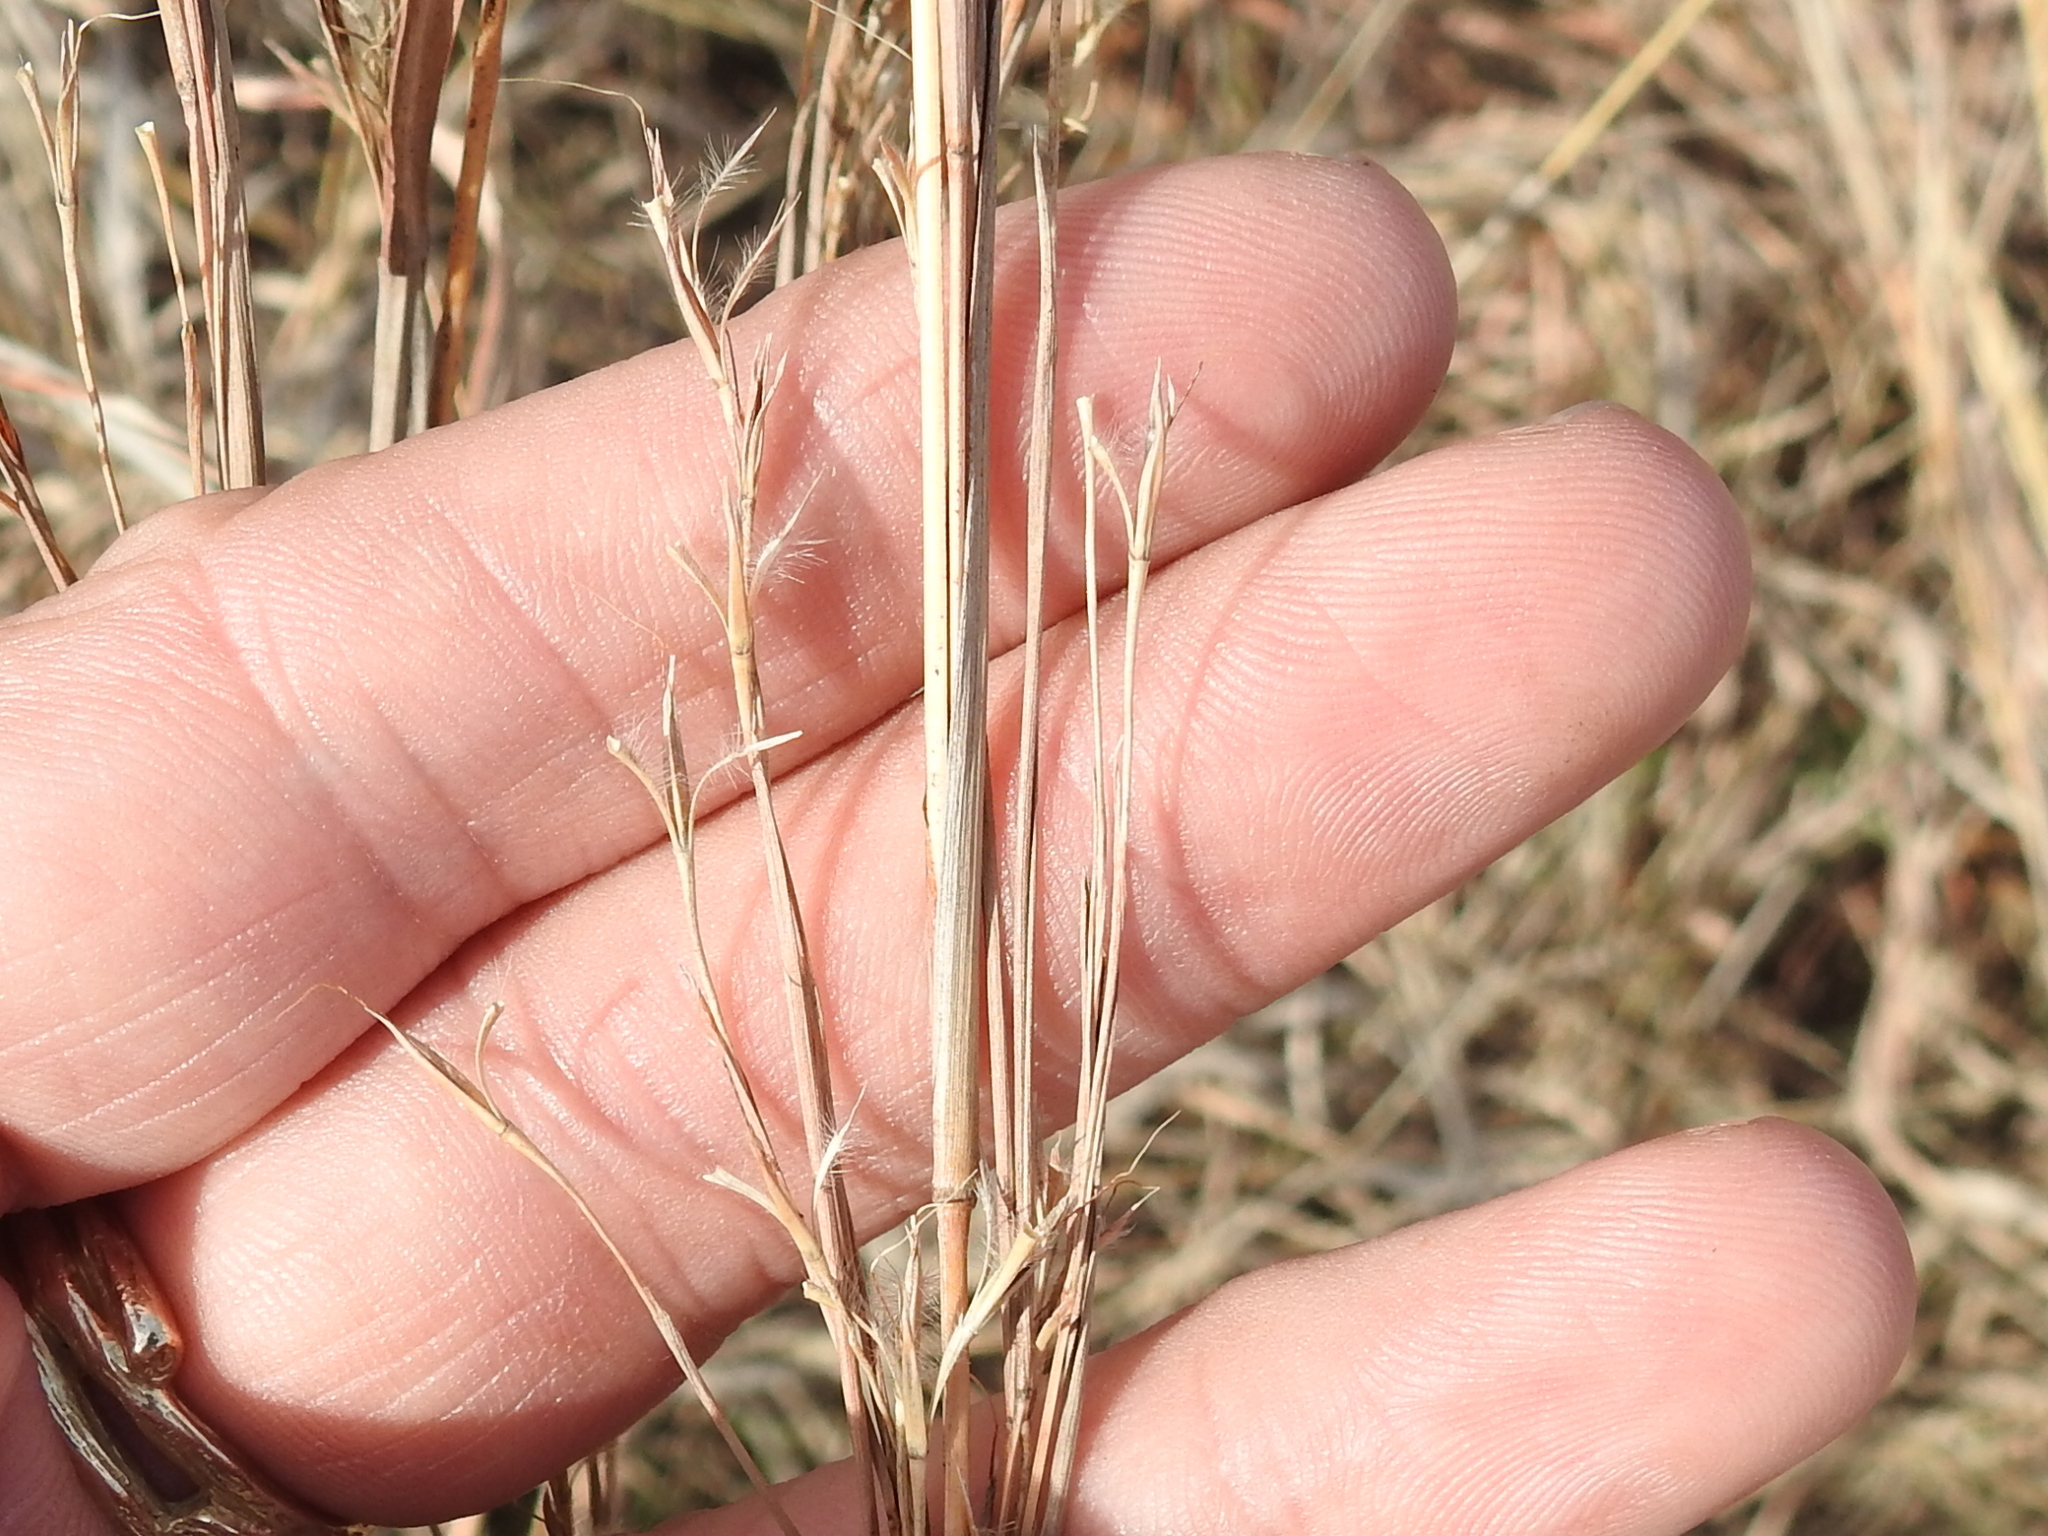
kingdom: Plantae
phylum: Tracheophyta
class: Liliopsida
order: Poales
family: Poaceae
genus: Schizachyrium
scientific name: Schizachyrium scoparium
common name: Little bluestem
